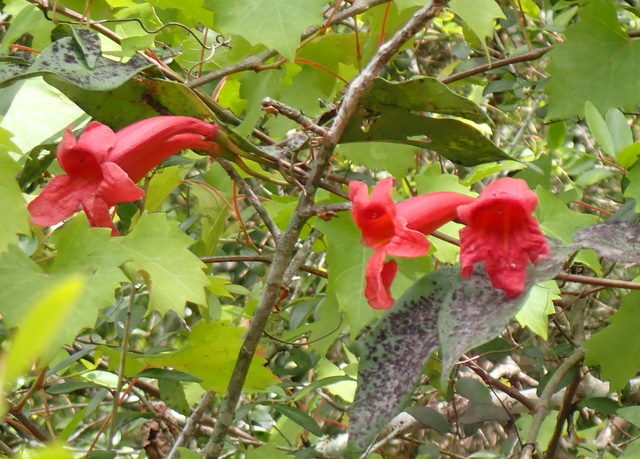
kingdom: Plantae
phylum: Tracheophyta
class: Magnoliopsida
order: Lamiales
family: Bignoniaceae
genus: Bignonia
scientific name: Bignonia capreolata
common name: Crossvine
